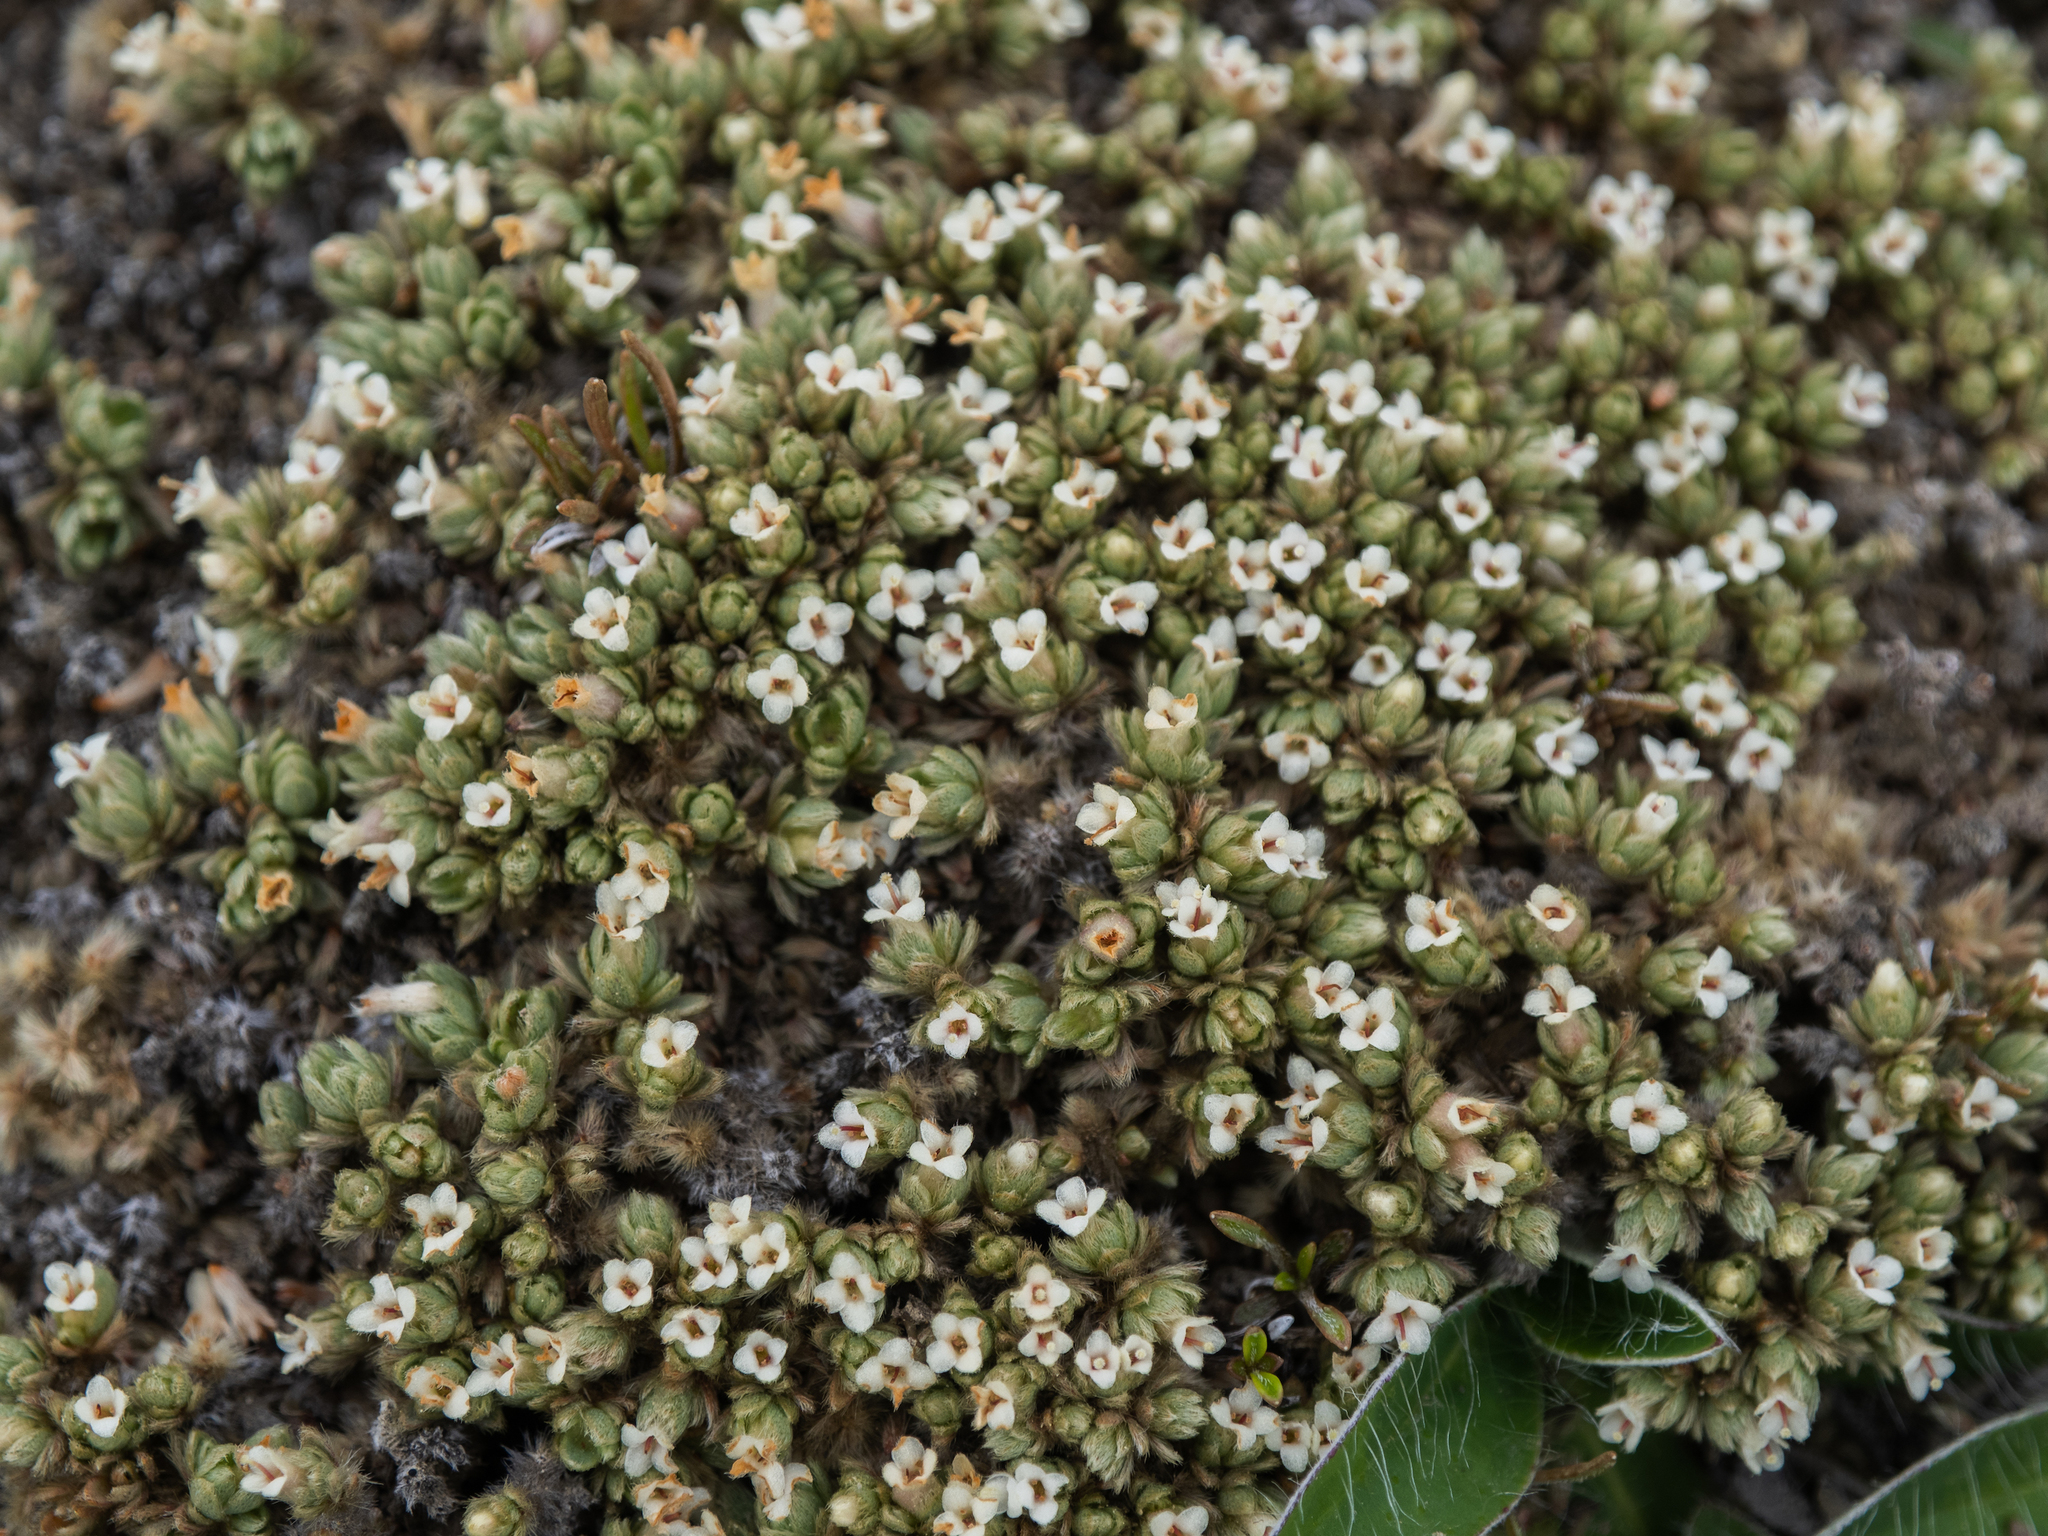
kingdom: Plantae
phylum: Tracheophyta
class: Magnoliopsida
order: Malvales
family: Thymelaeaceae
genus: Pimelea
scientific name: Pimelea sericeovillosa
